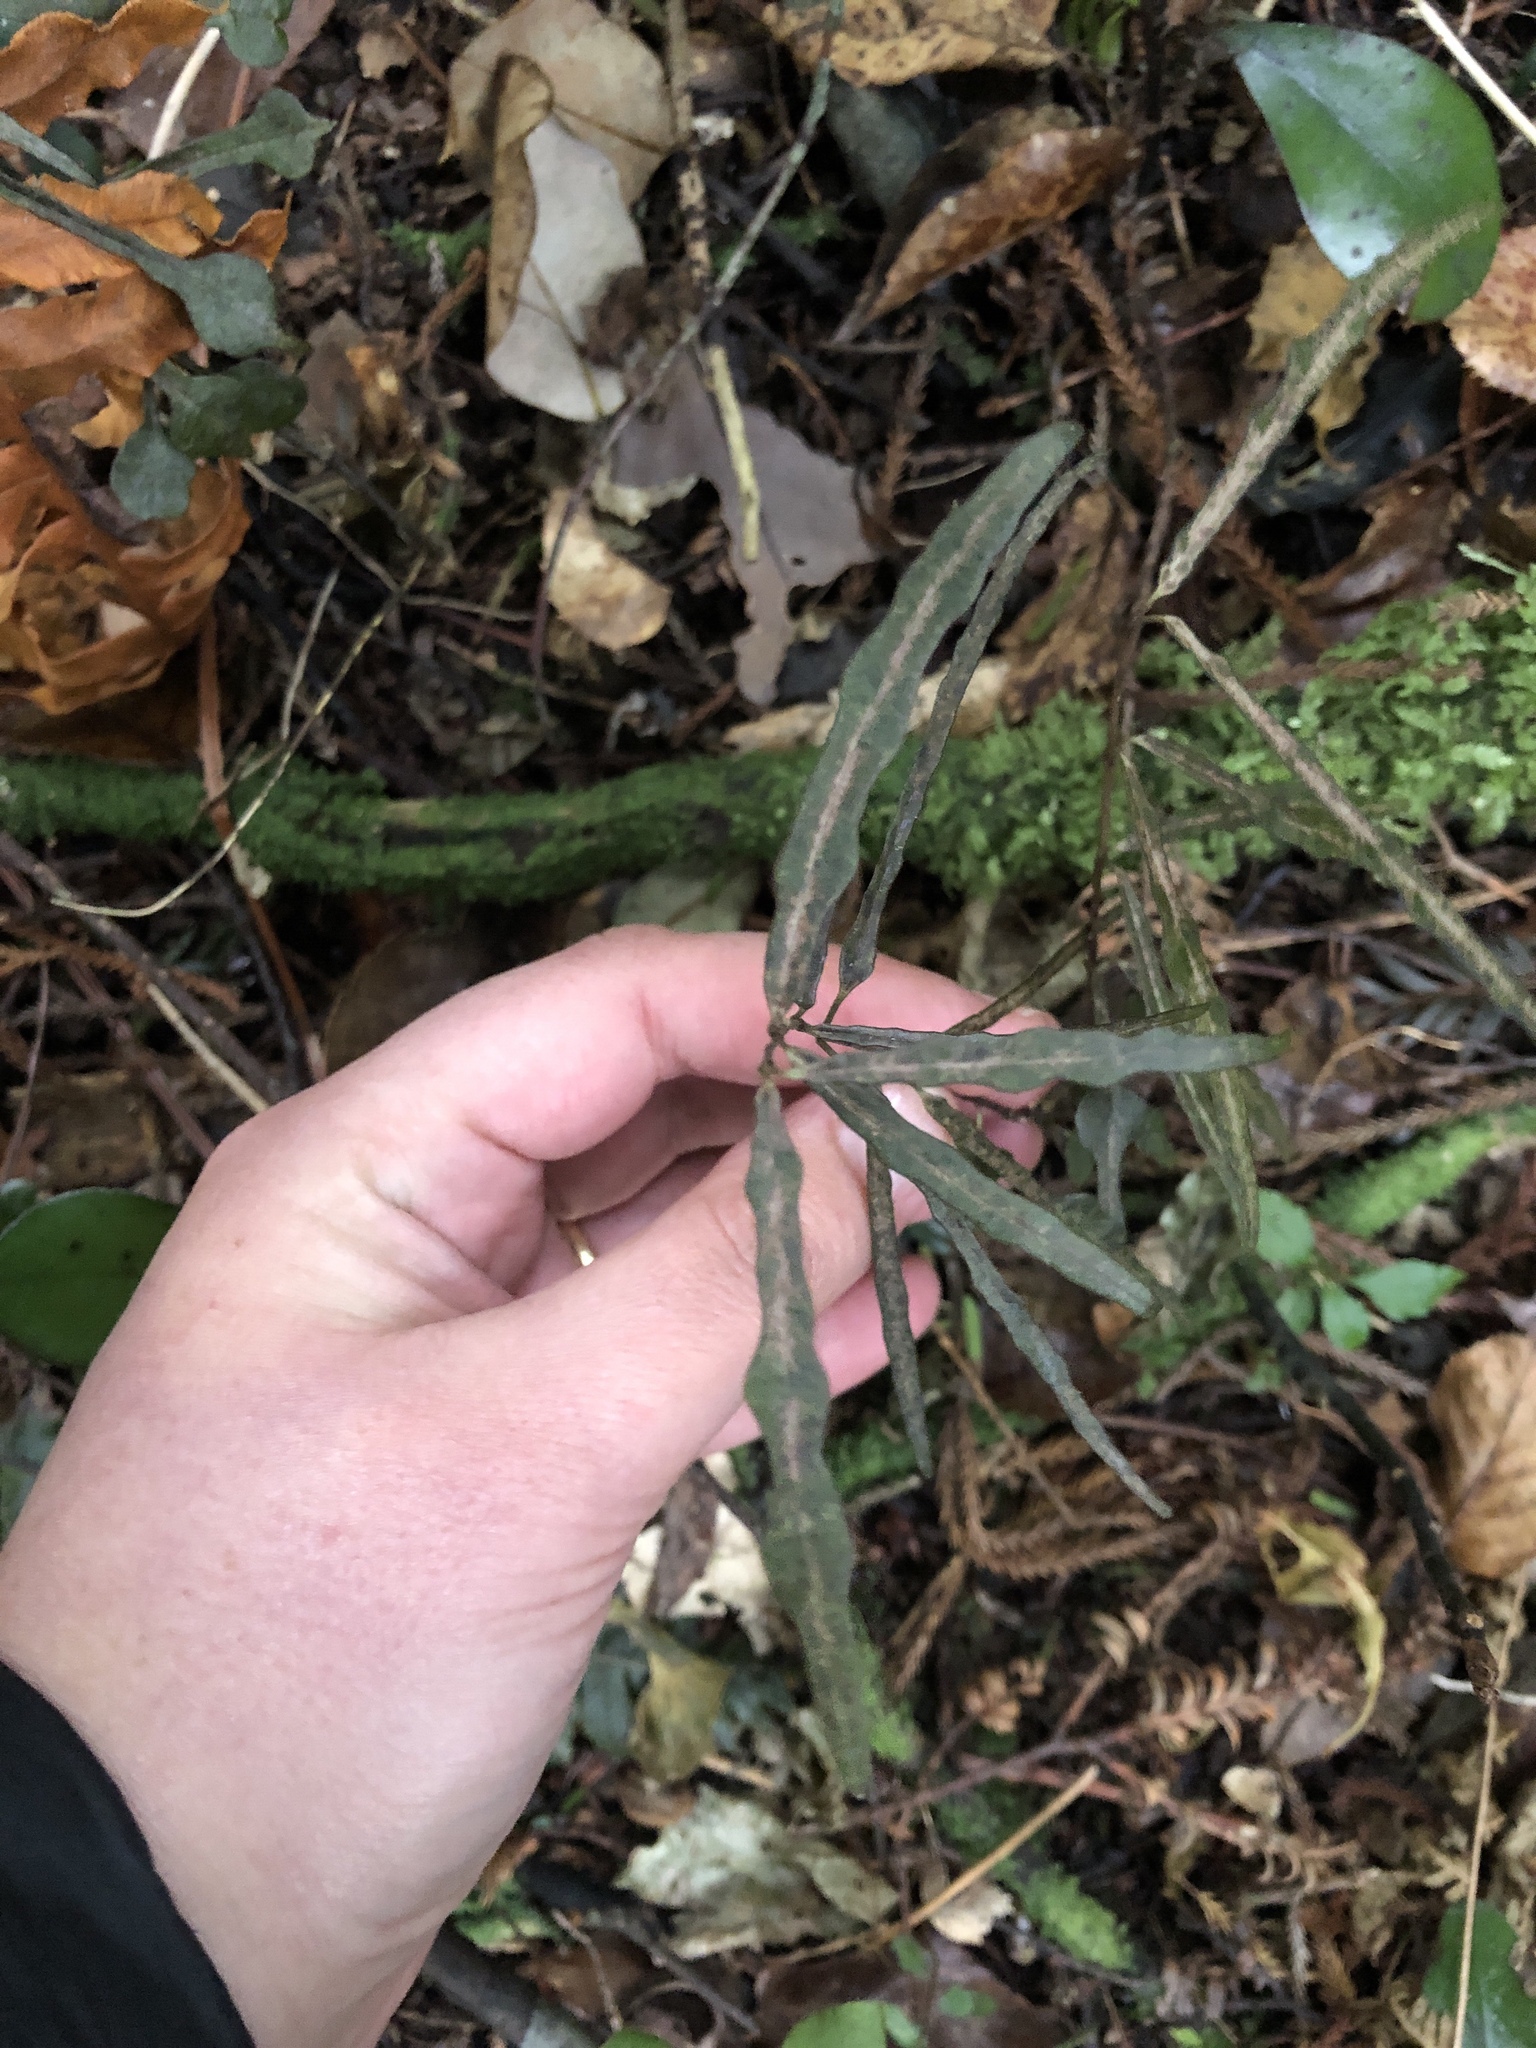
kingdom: Plantae
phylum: Tracheophyta
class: Magnoliopsida
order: Gentianales
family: Apocynaceae
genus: Parsonsia
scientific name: Parsonsia heterophylla
